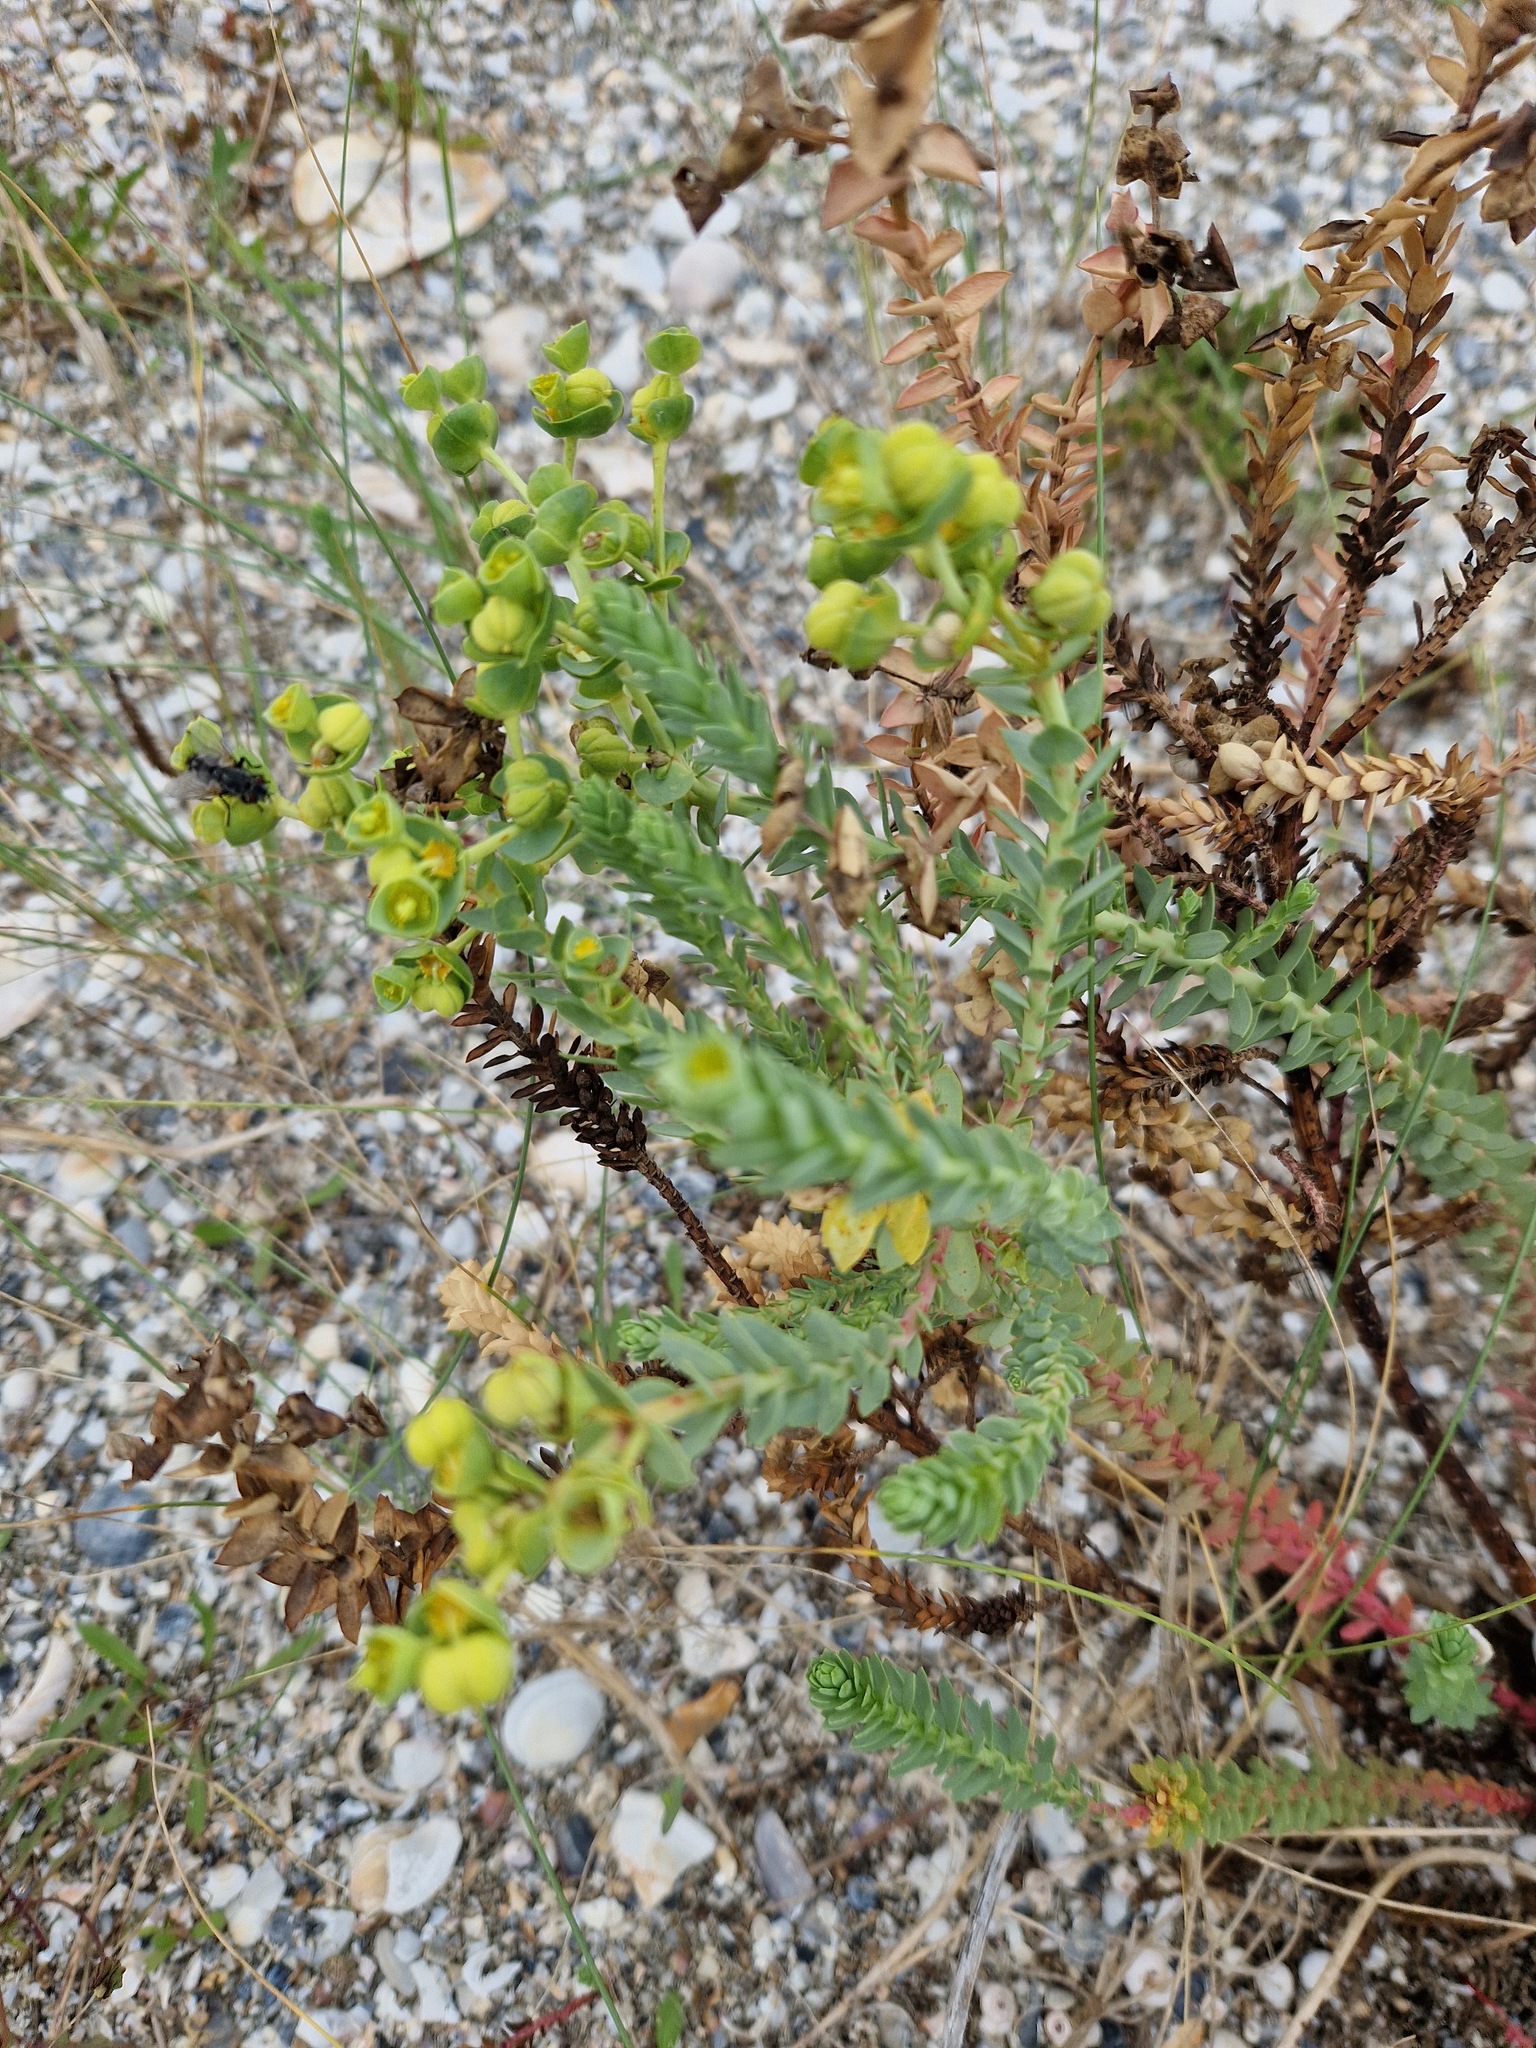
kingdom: Plantae
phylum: Tracheophyta
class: Magnoliopsida
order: Malpighiales
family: Euphorbiaceae
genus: Euphorbia
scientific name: Euphorbia paralias
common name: Sea spurge
